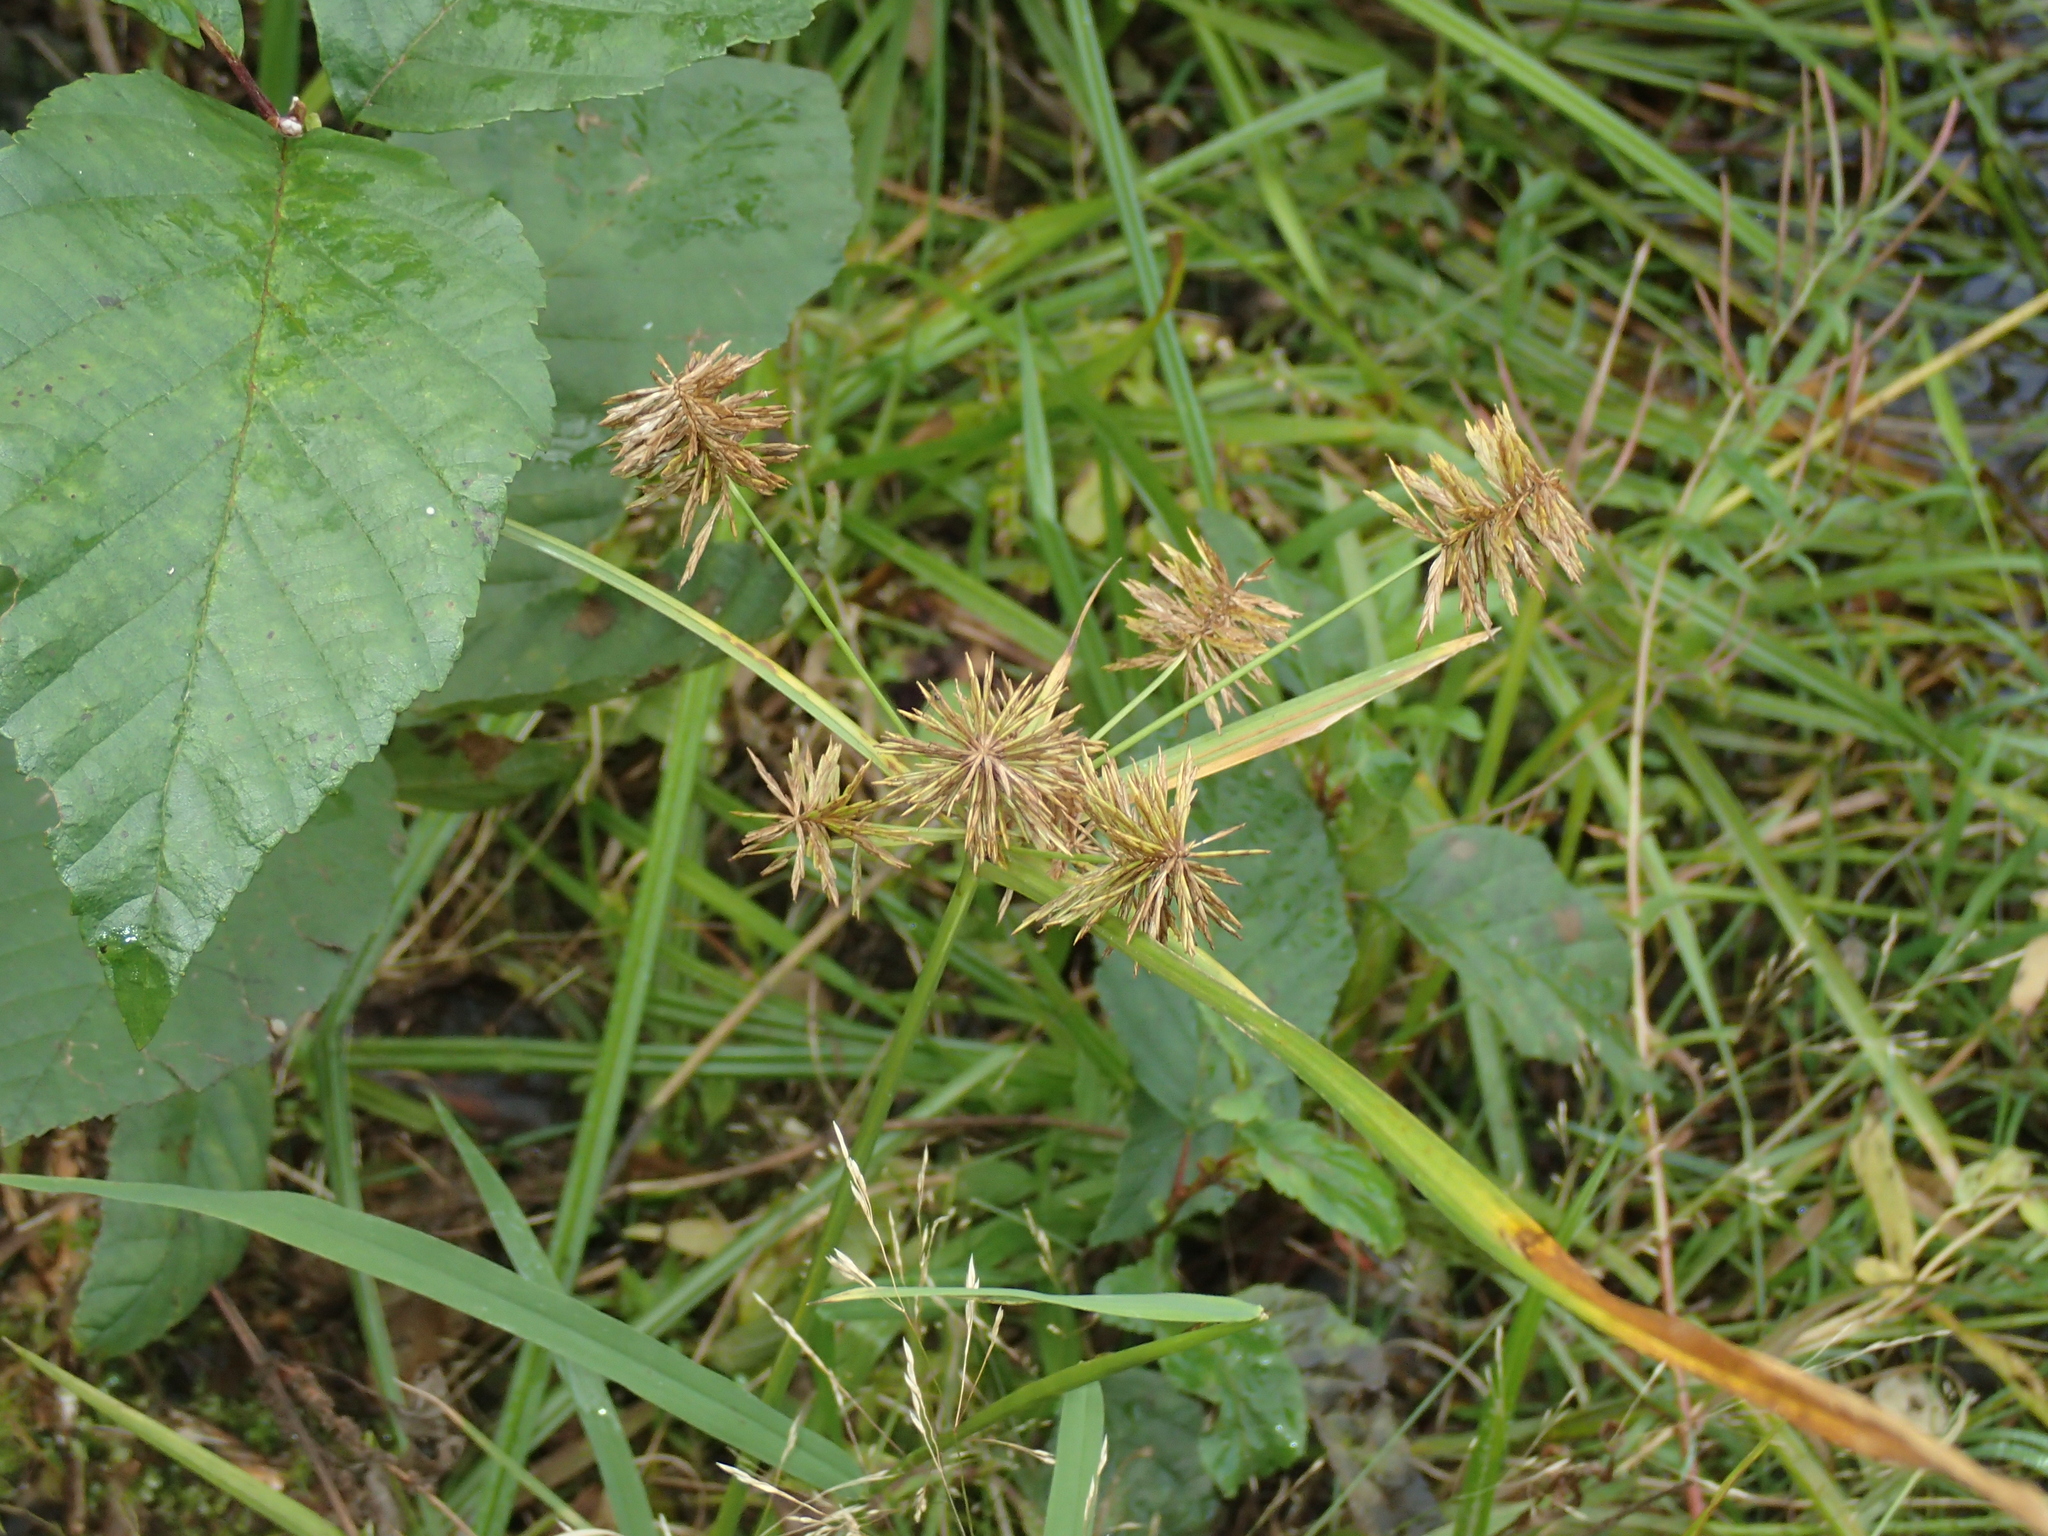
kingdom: Plantae
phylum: Tracheophyta
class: Liliopsida
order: Poales
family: Cyperaceae
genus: Cyperus
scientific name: Cyperus strigosus
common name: False nutsedge
